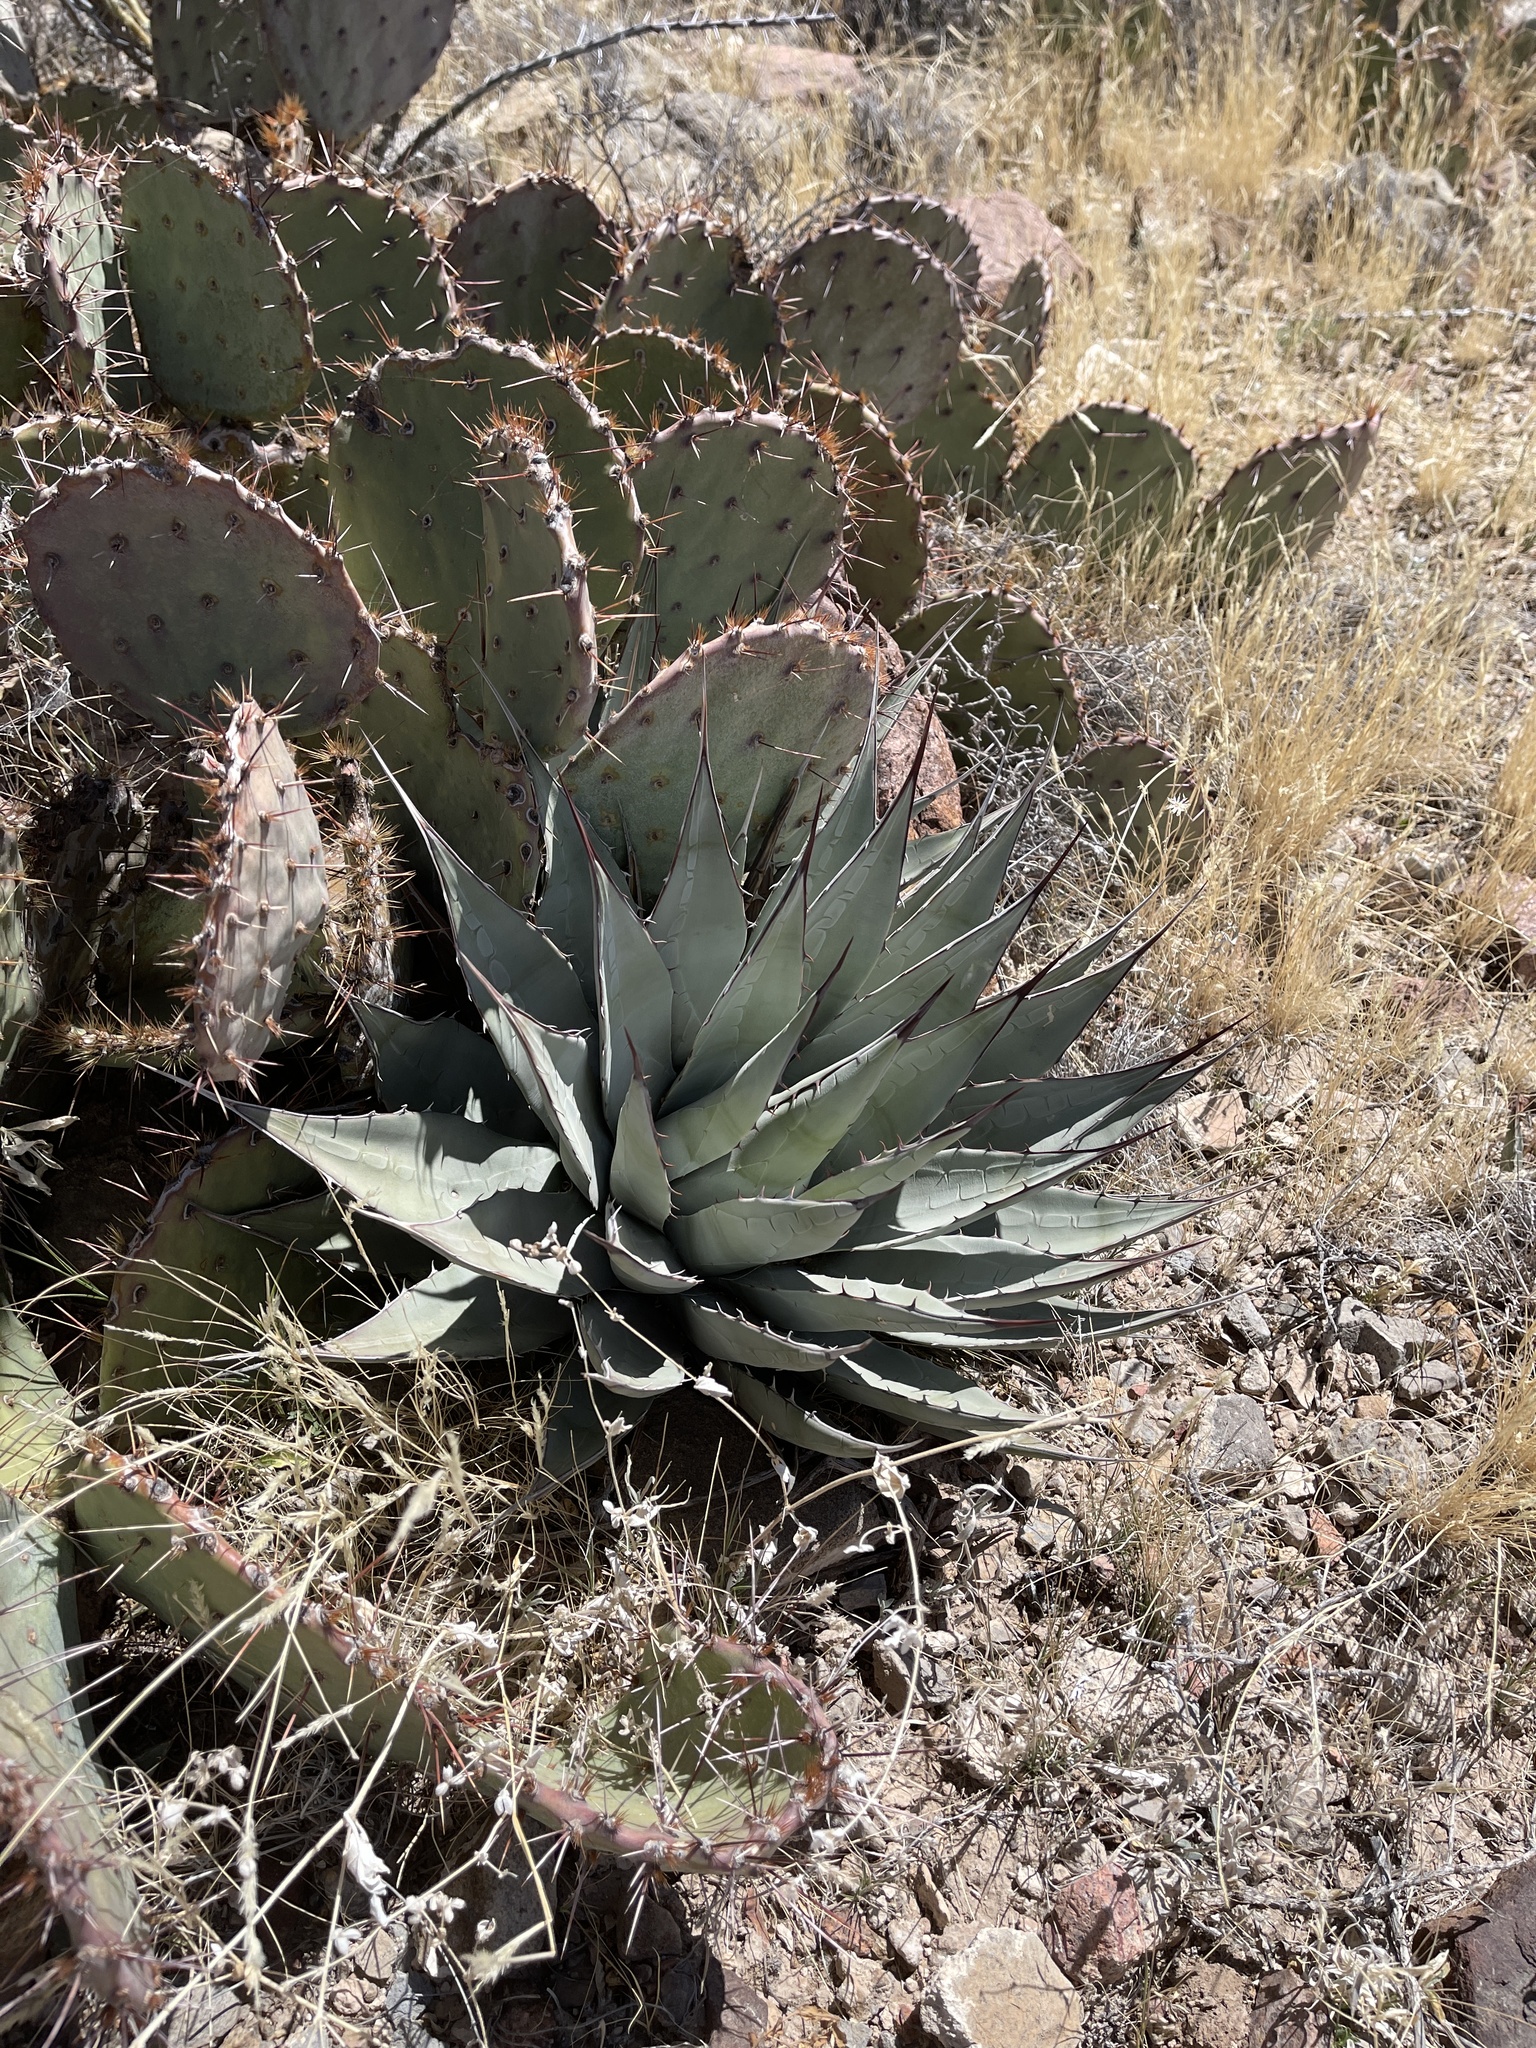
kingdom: Plantae
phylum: Tracheophyta
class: Liliopsida
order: Asparagales
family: Asparagaceae
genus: Agave
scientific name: Agave parryi
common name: Parry's agave
